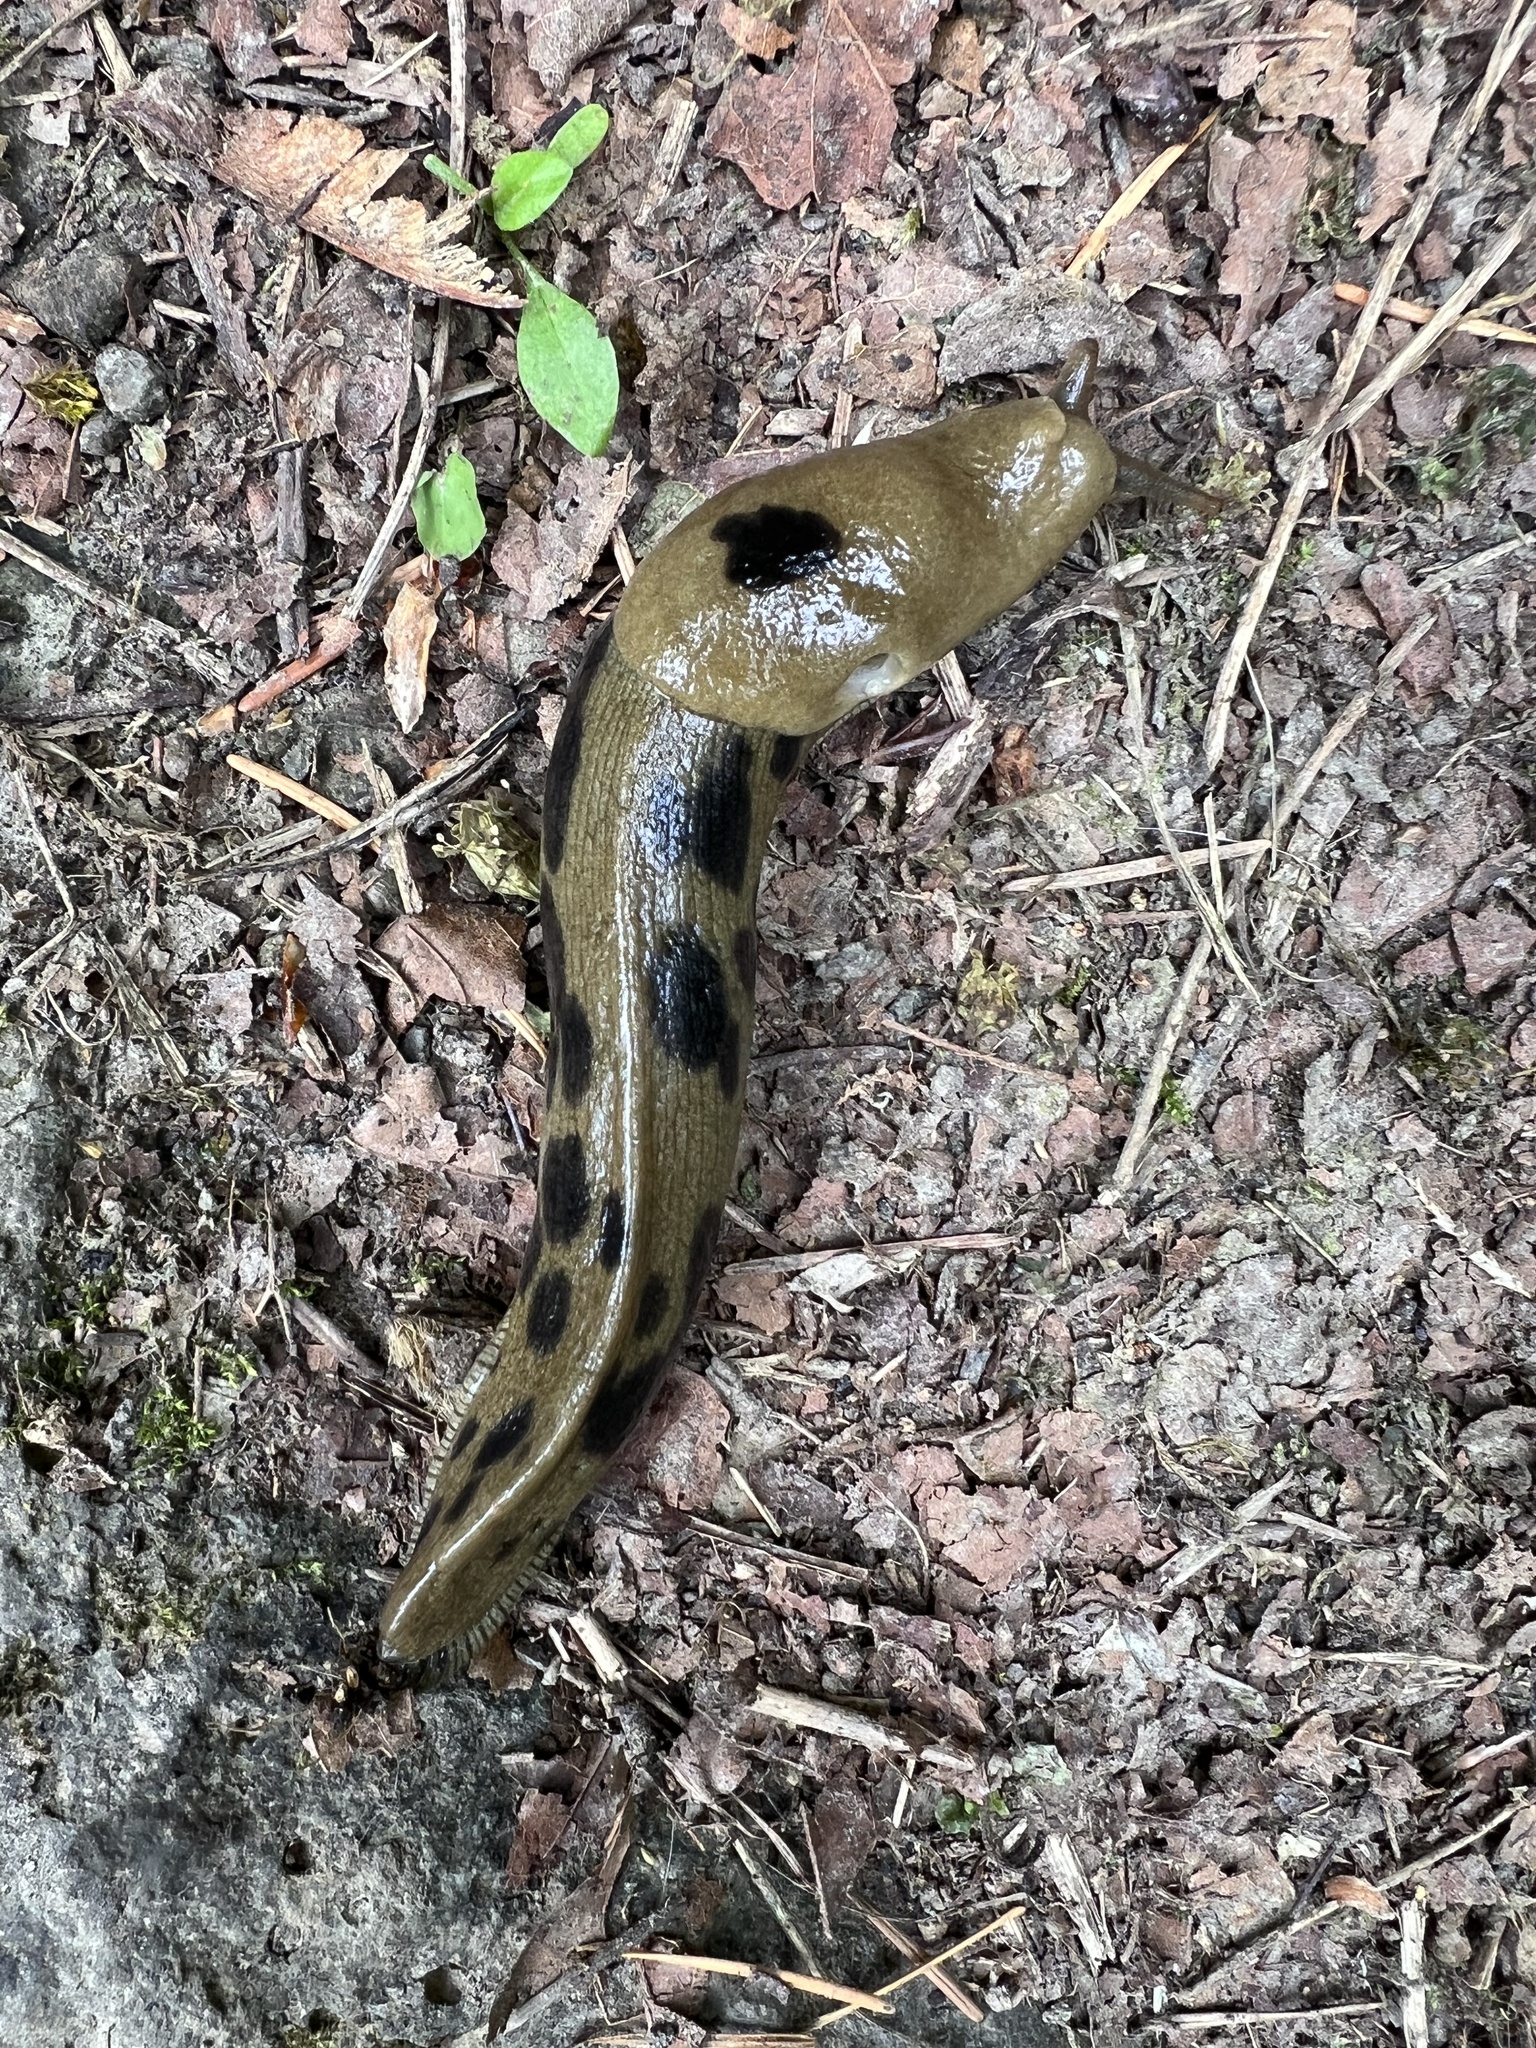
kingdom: Animalia
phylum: Mollusca
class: Gastropoda
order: Stylommatophora
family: Ariolimacidae
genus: Ariolimax
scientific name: Ariolimax columbianus
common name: Pacific banana slug
